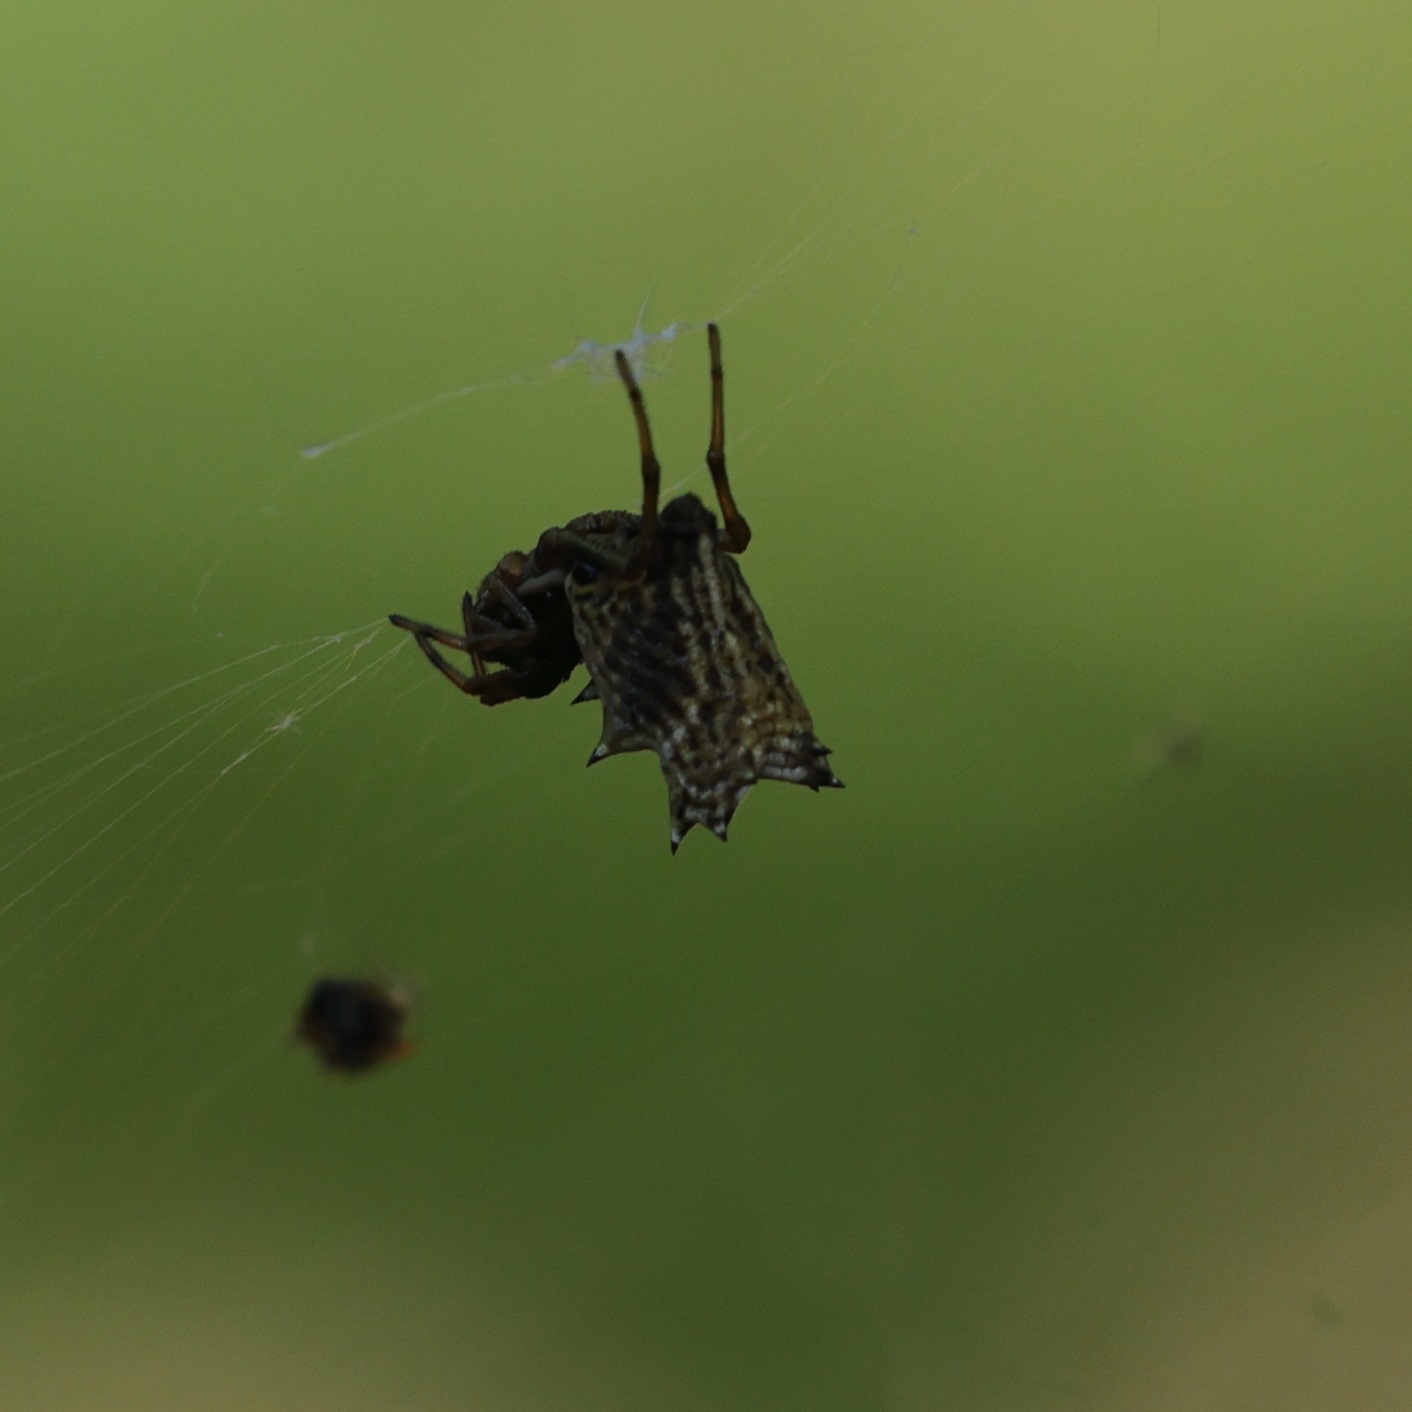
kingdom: Animalia
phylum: Arthropoda
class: Arachnida
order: Araneae
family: Araneidae
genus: Micrathena
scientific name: Micrathena gracilis
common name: Orb weavers
